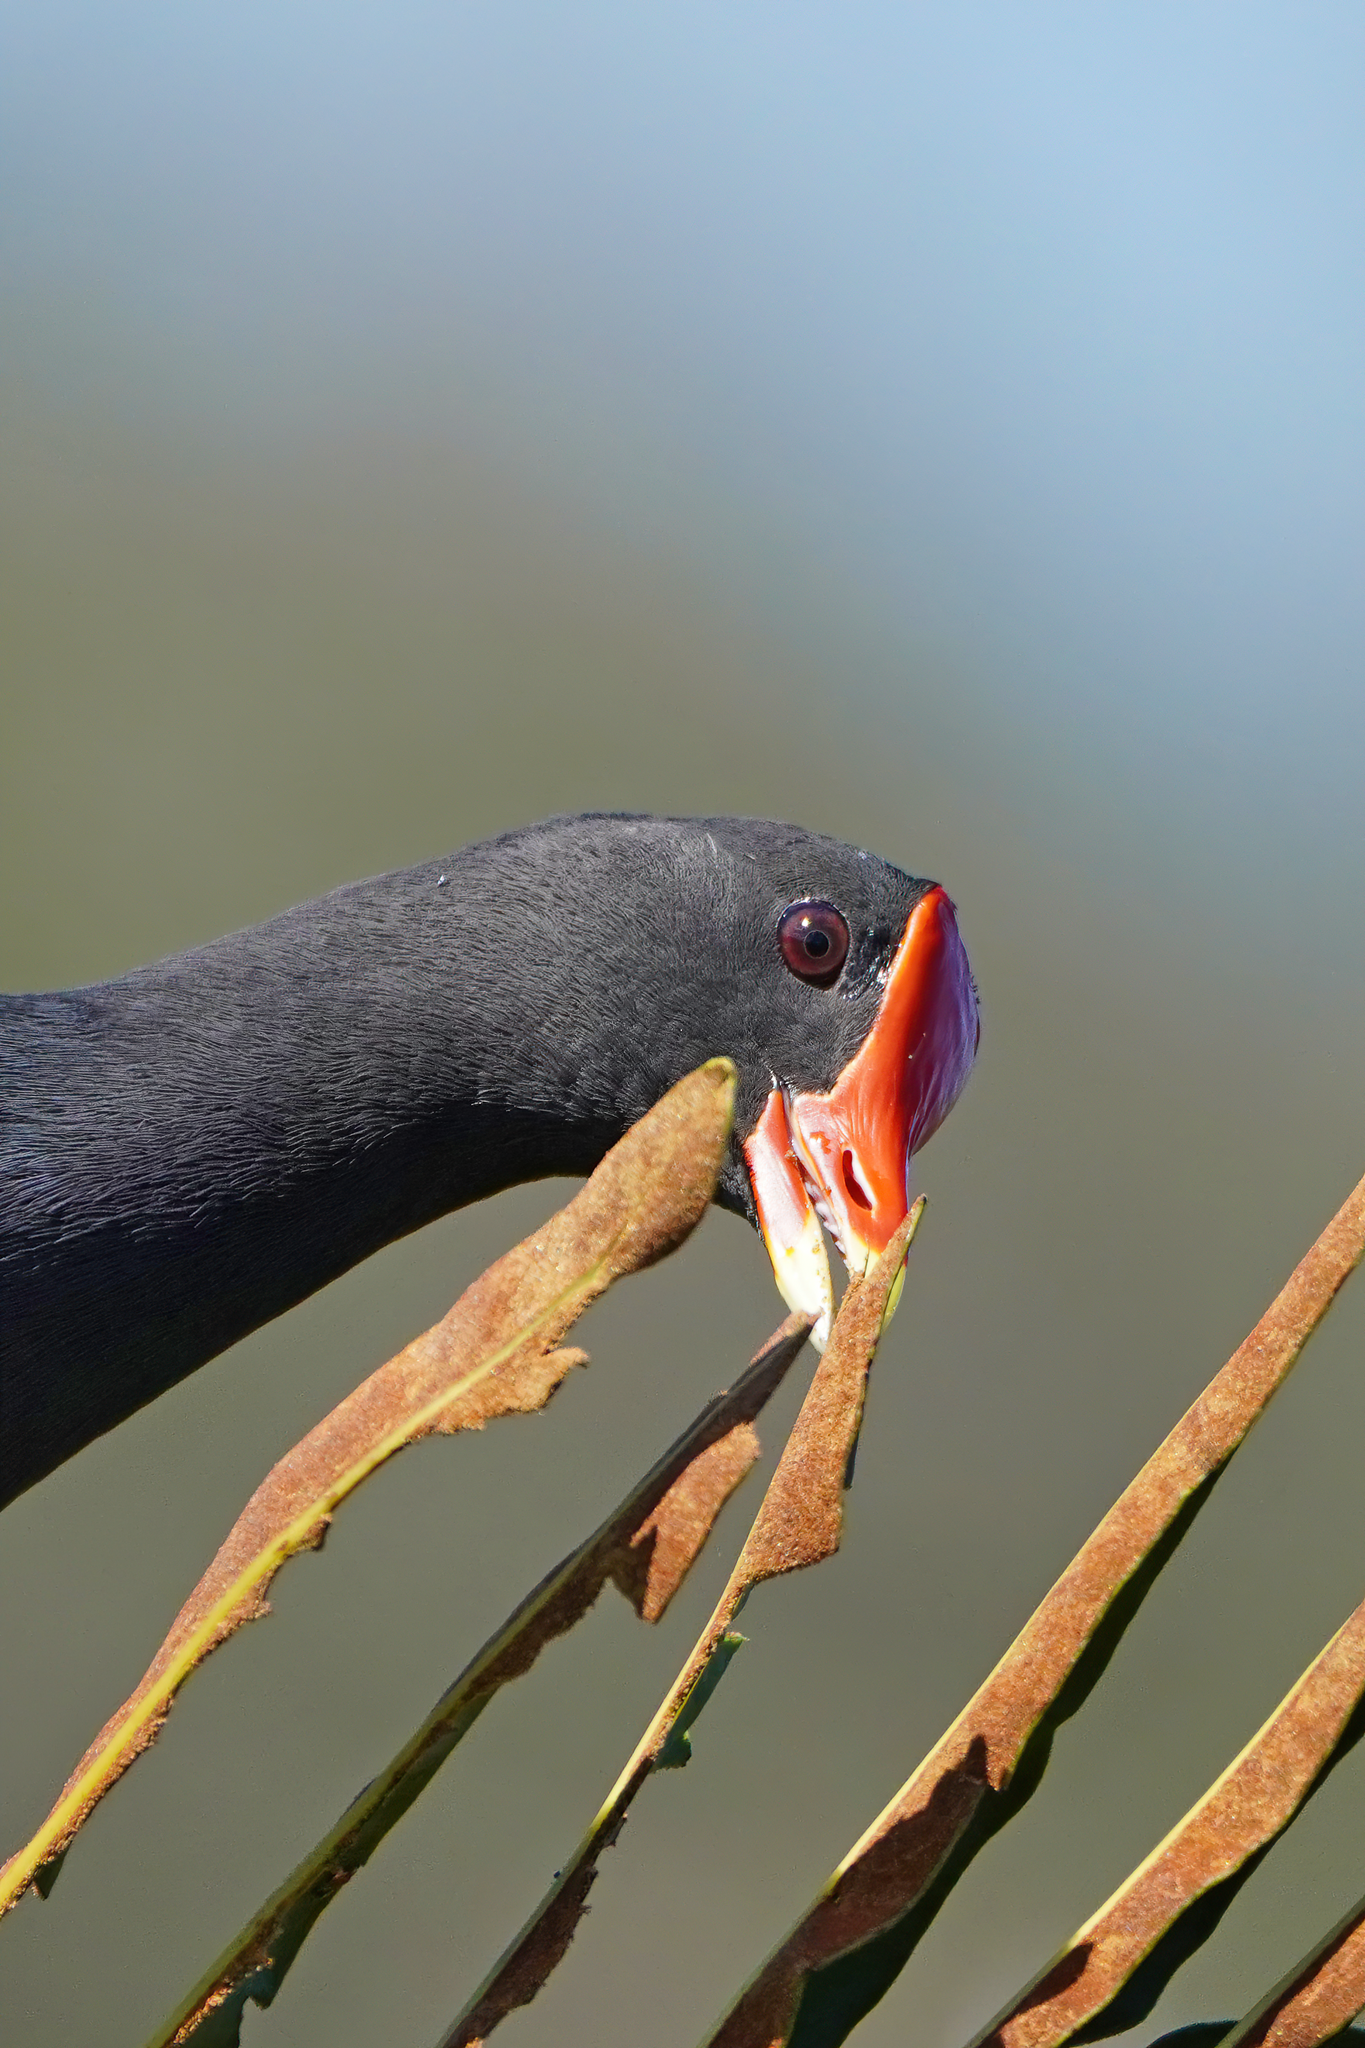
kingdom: Animalia
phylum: Chordata
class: Aves
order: Gruiformes
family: Rallidae
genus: Gallinula
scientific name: Gallinula chloropus
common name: Common moorhen
